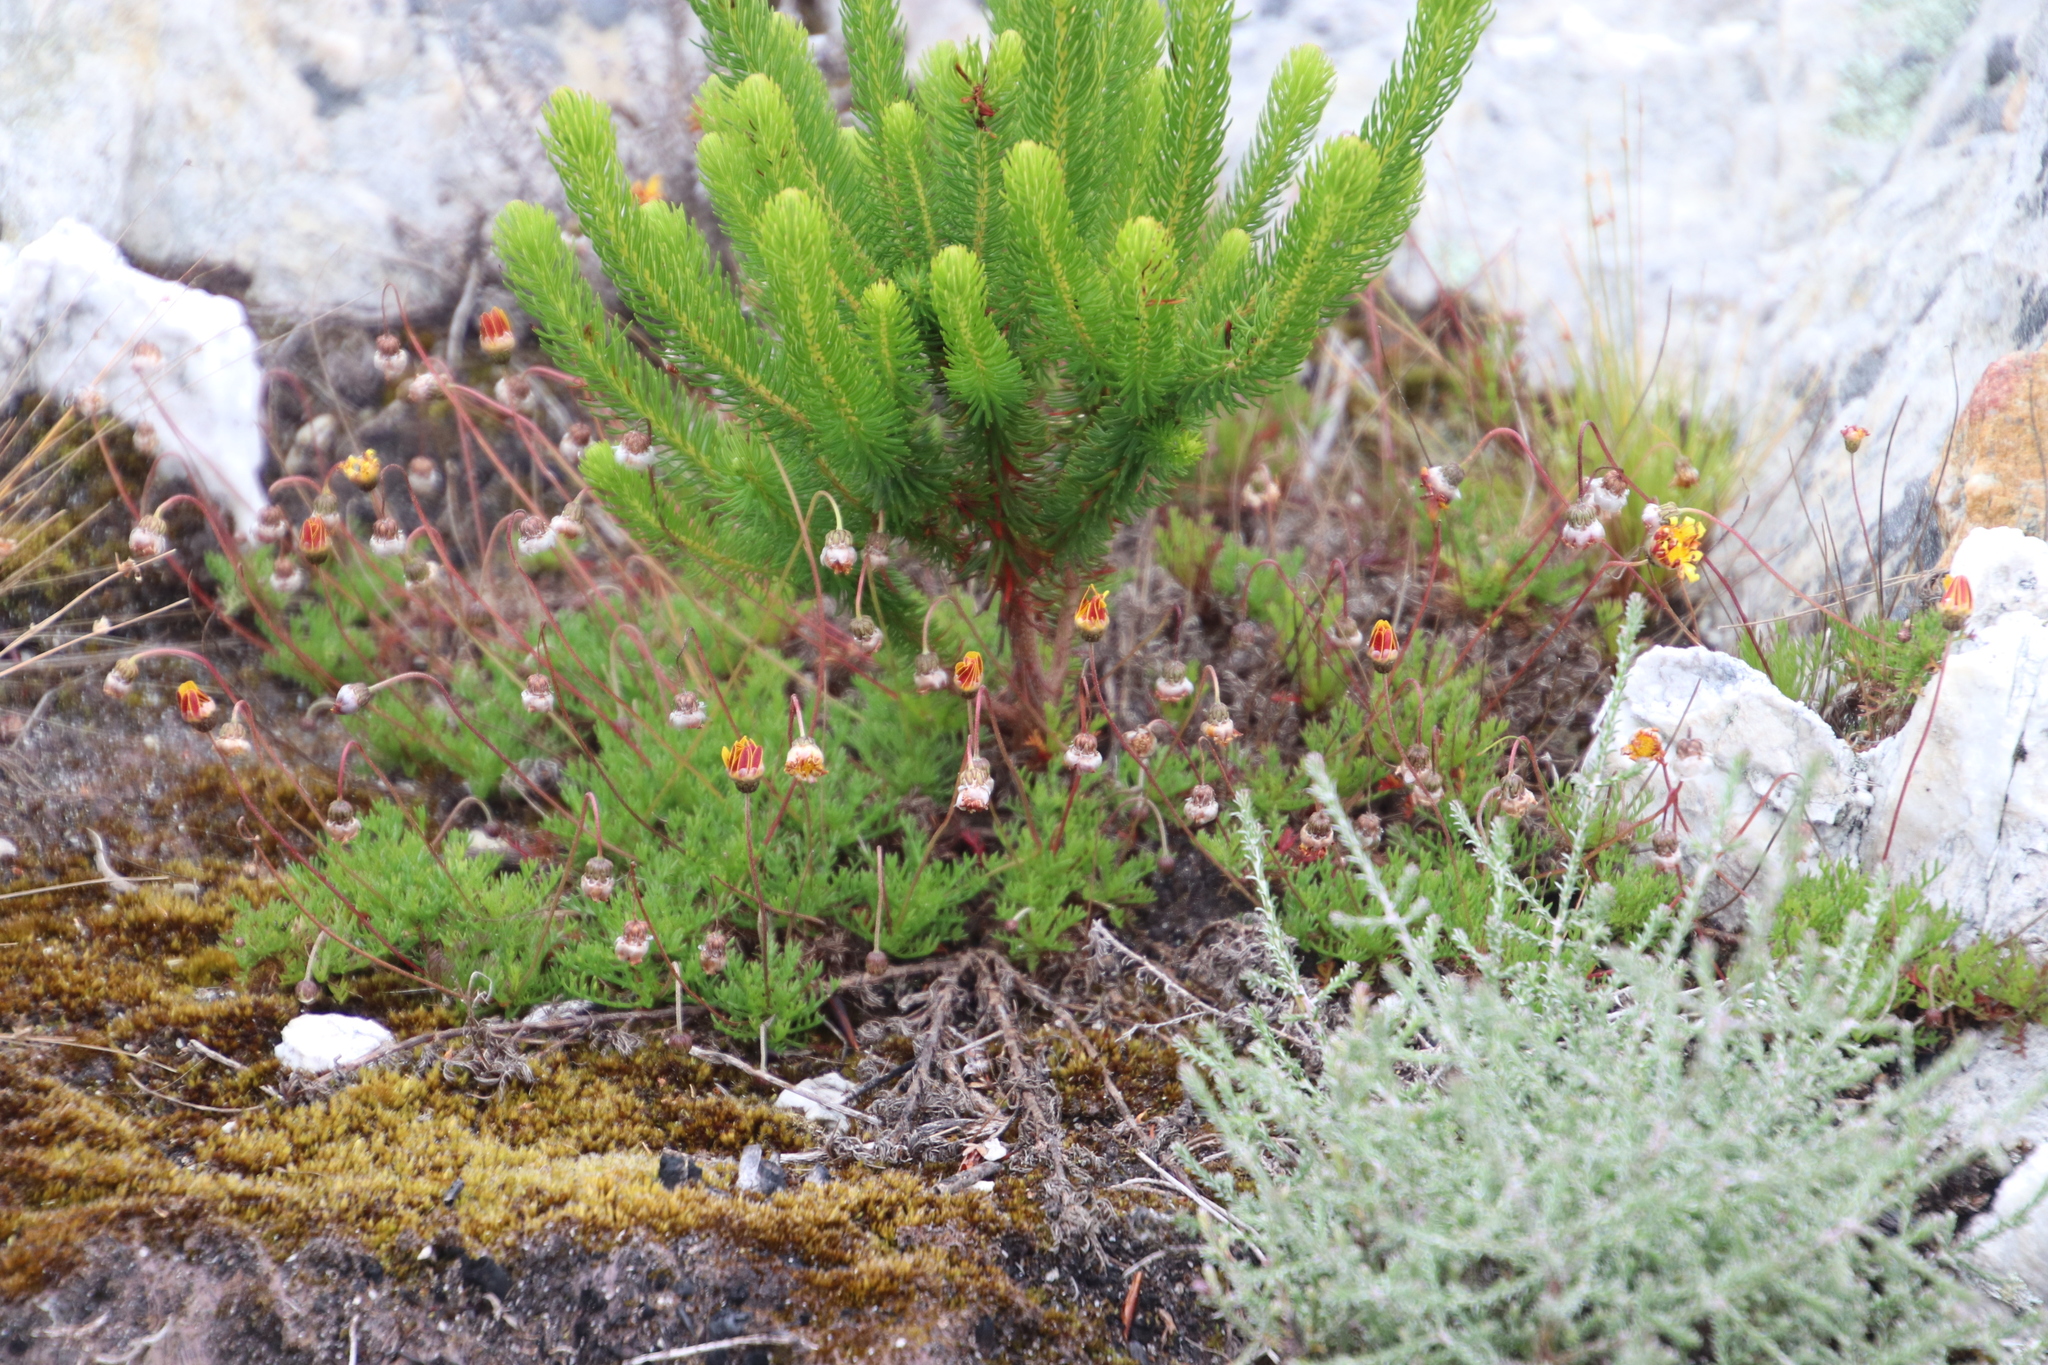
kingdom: Plantae
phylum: Tracheophyta
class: Magnoliopsida
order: Asterales
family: Asteraceae
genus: Ursinia
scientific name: Ursinia nudicaulis
